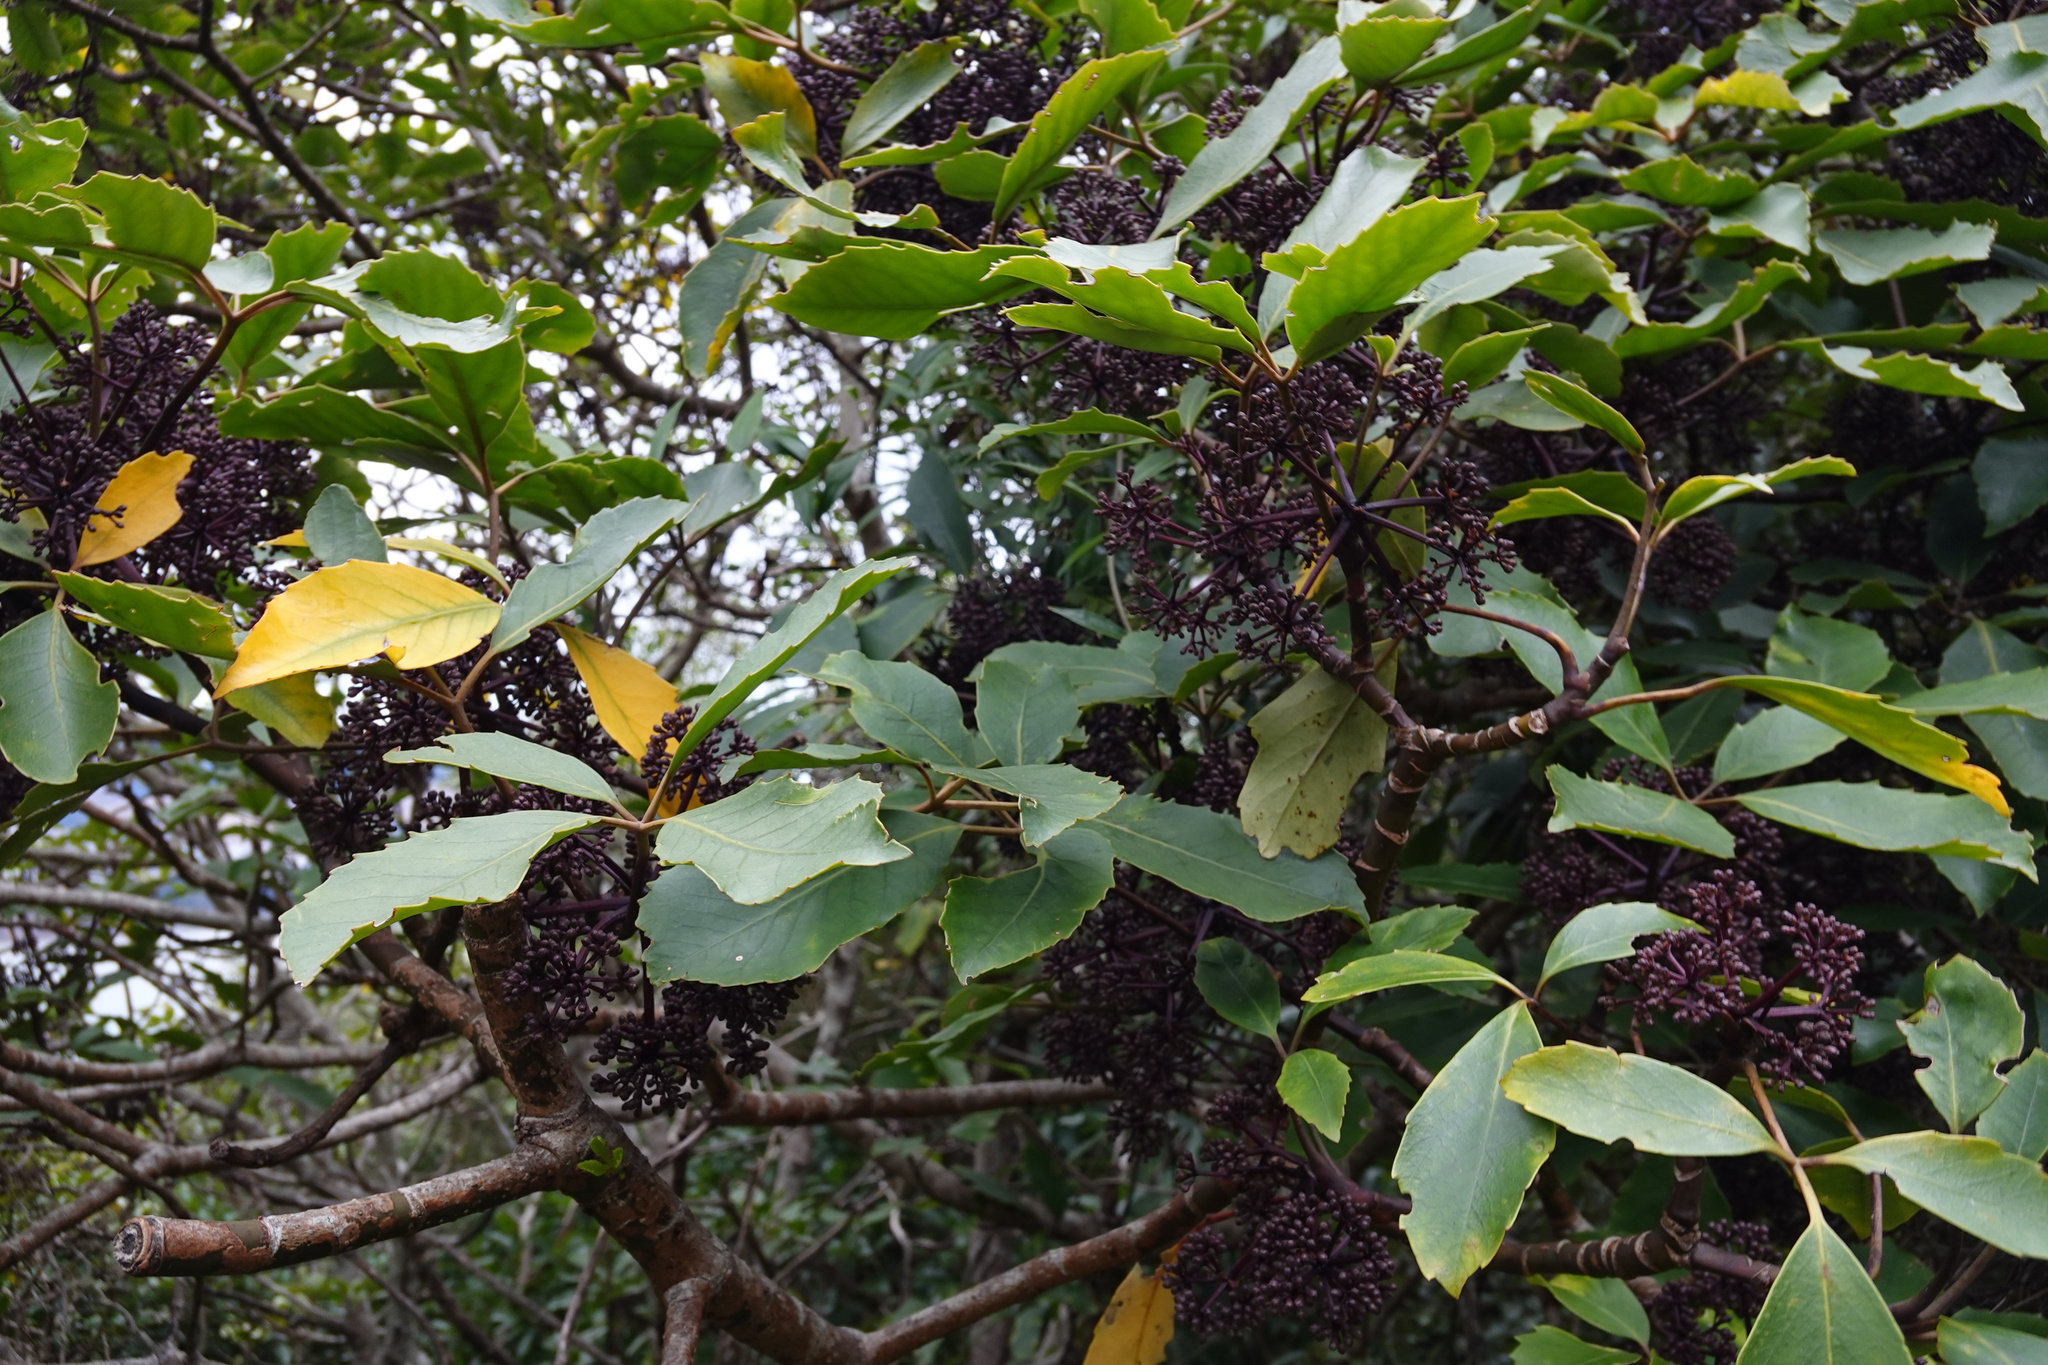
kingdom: Plantae
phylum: Tracheophyta
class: Magnoliopsida
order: Apiales
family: Araliaceae
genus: Neopanax
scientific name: Neopanax arboreus
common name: Five-fingers
